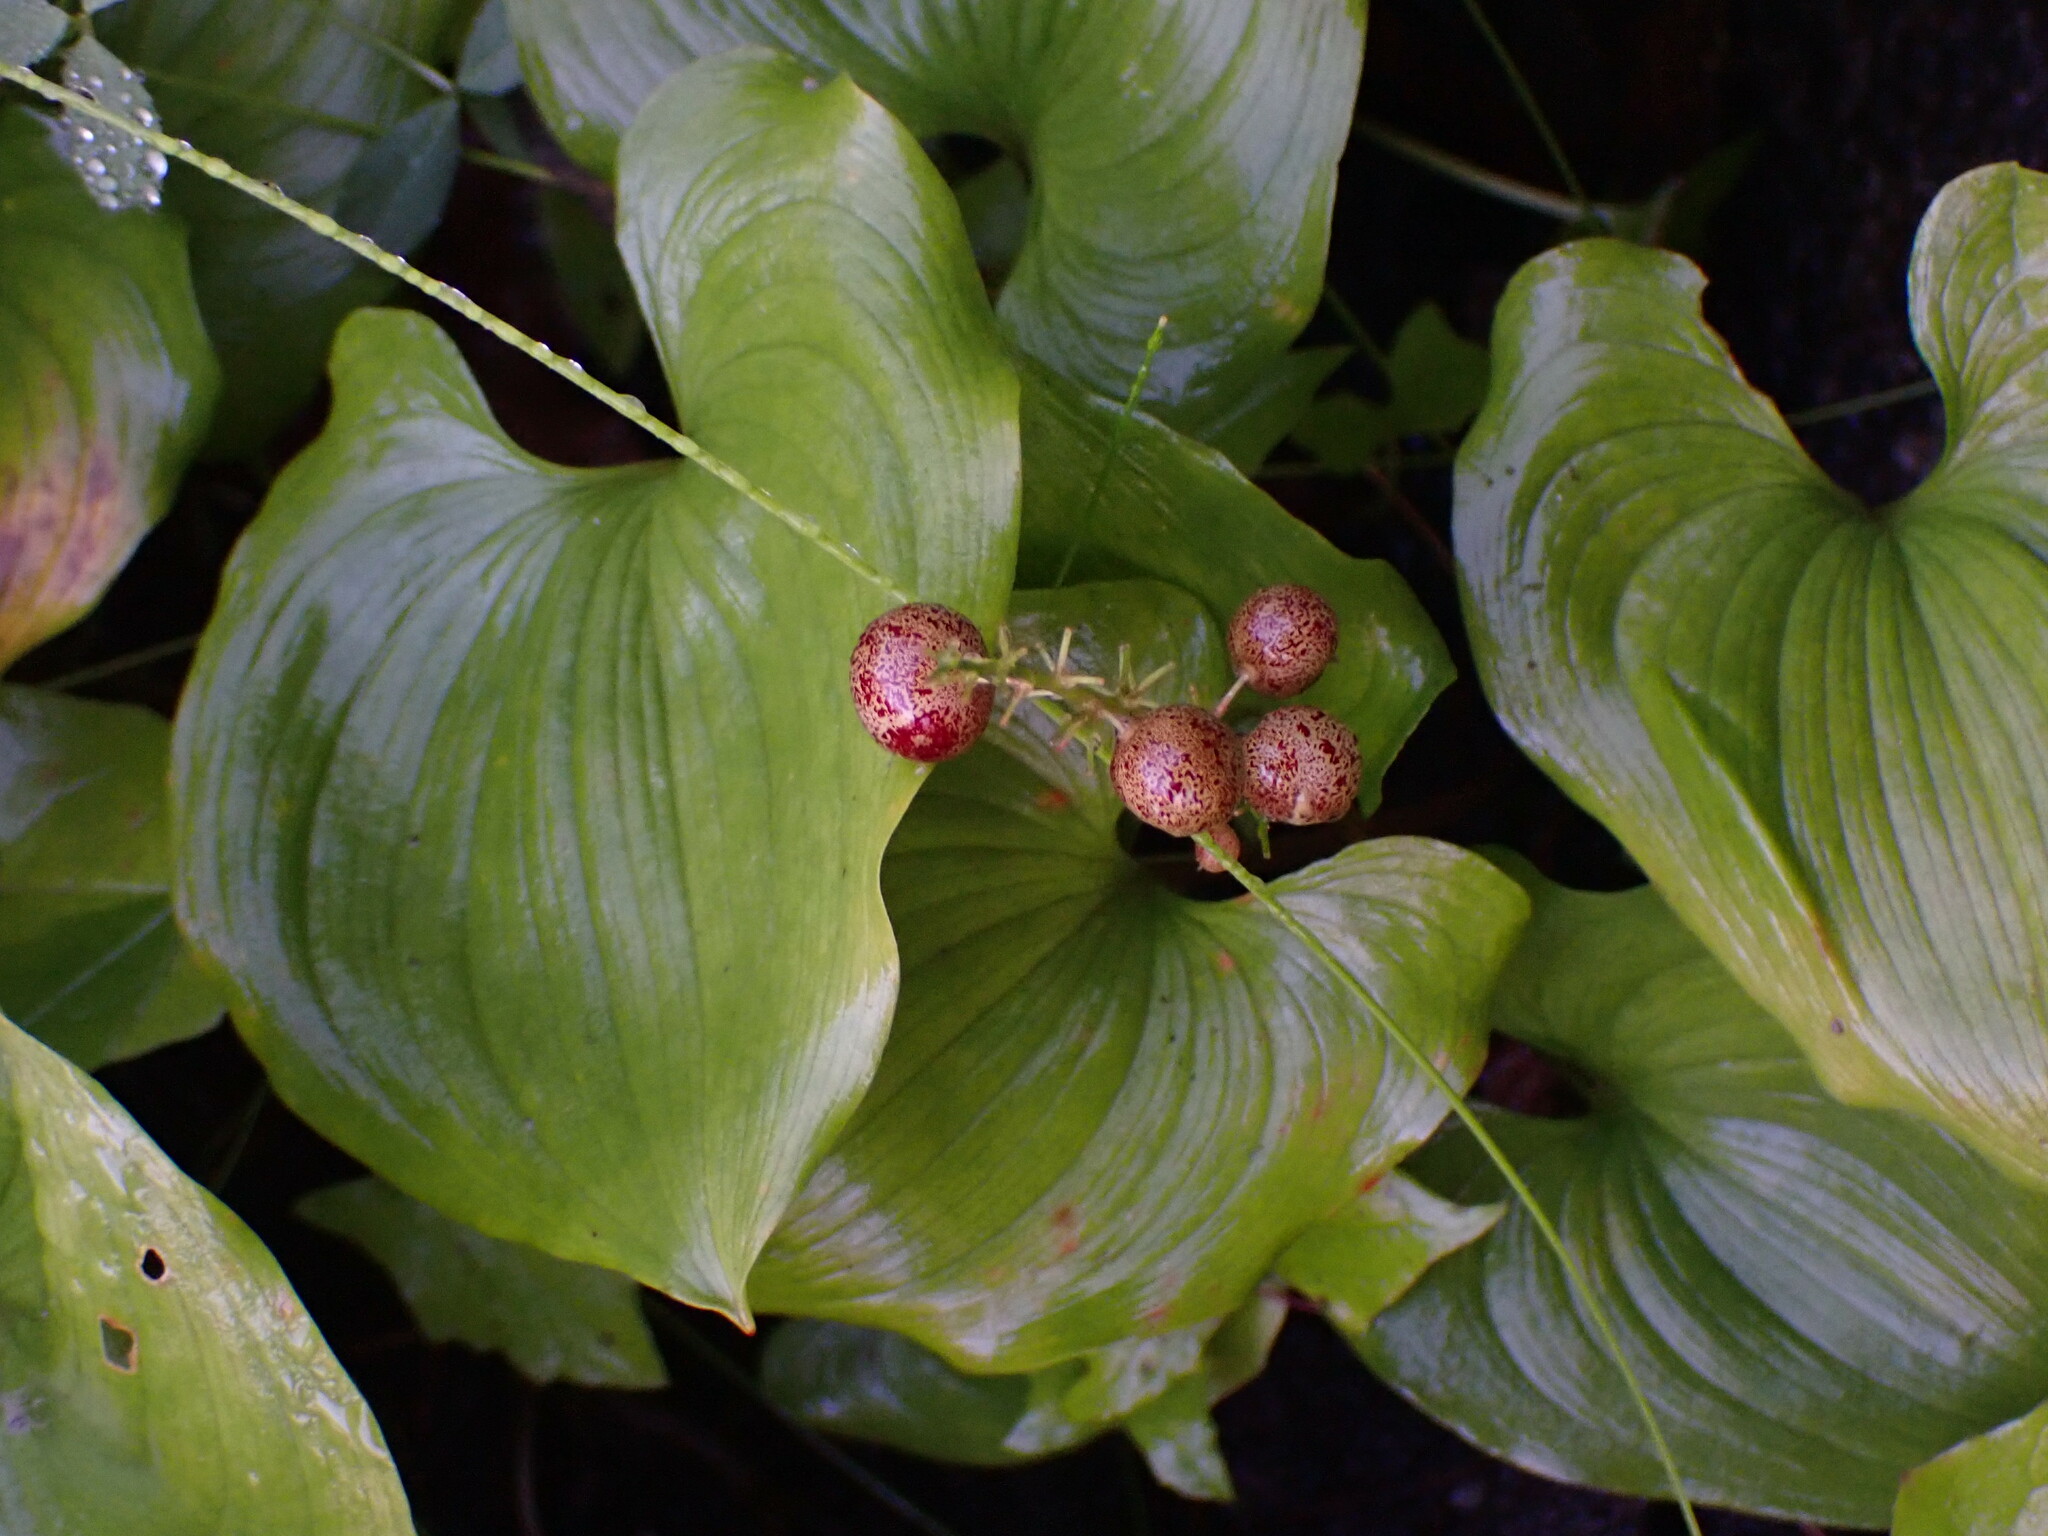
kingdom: Plantae
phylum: Tracheophyta
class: Liliopsida
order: Asparagales
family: Asparagaceae
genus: Maianthemum
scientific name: Maianthemum dilatatum
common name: False lily-of-the-valley
